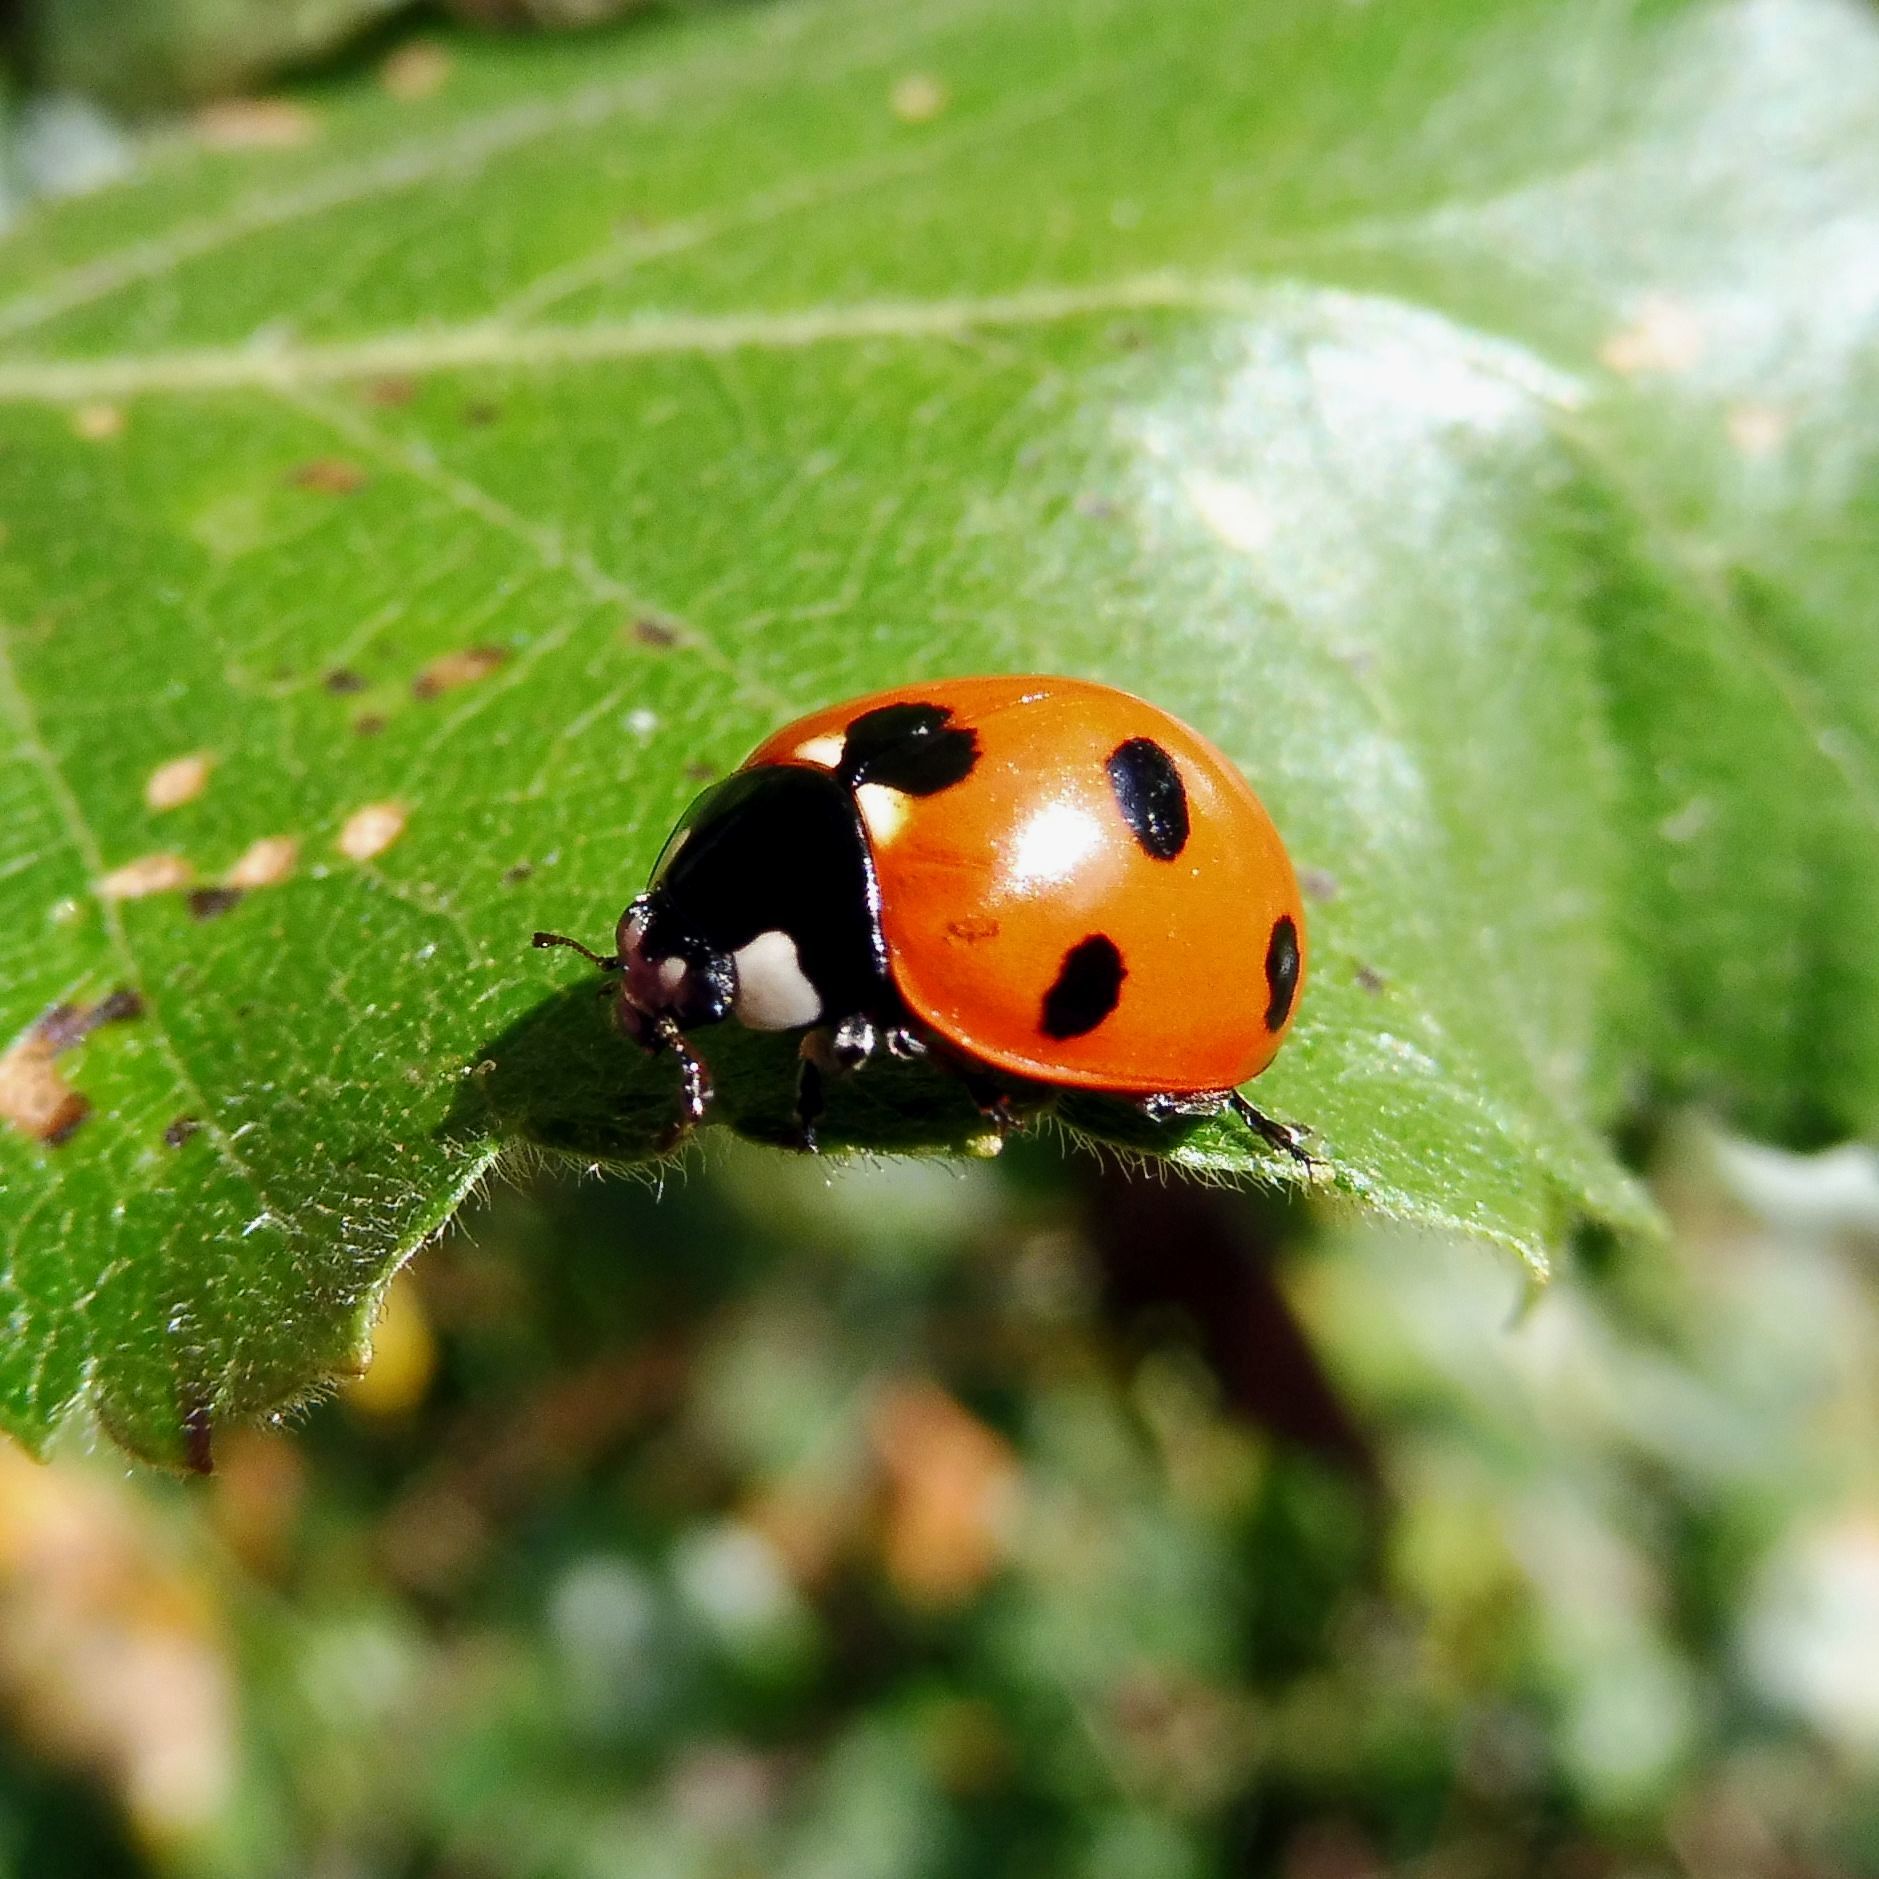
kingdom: Animalia
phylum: Arthropoda
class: Insecta
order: Coleoptera
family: Coccinellidae
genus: Coccinella
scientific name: Coccinella septempunctata
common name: Sevenspotted lady beetle
